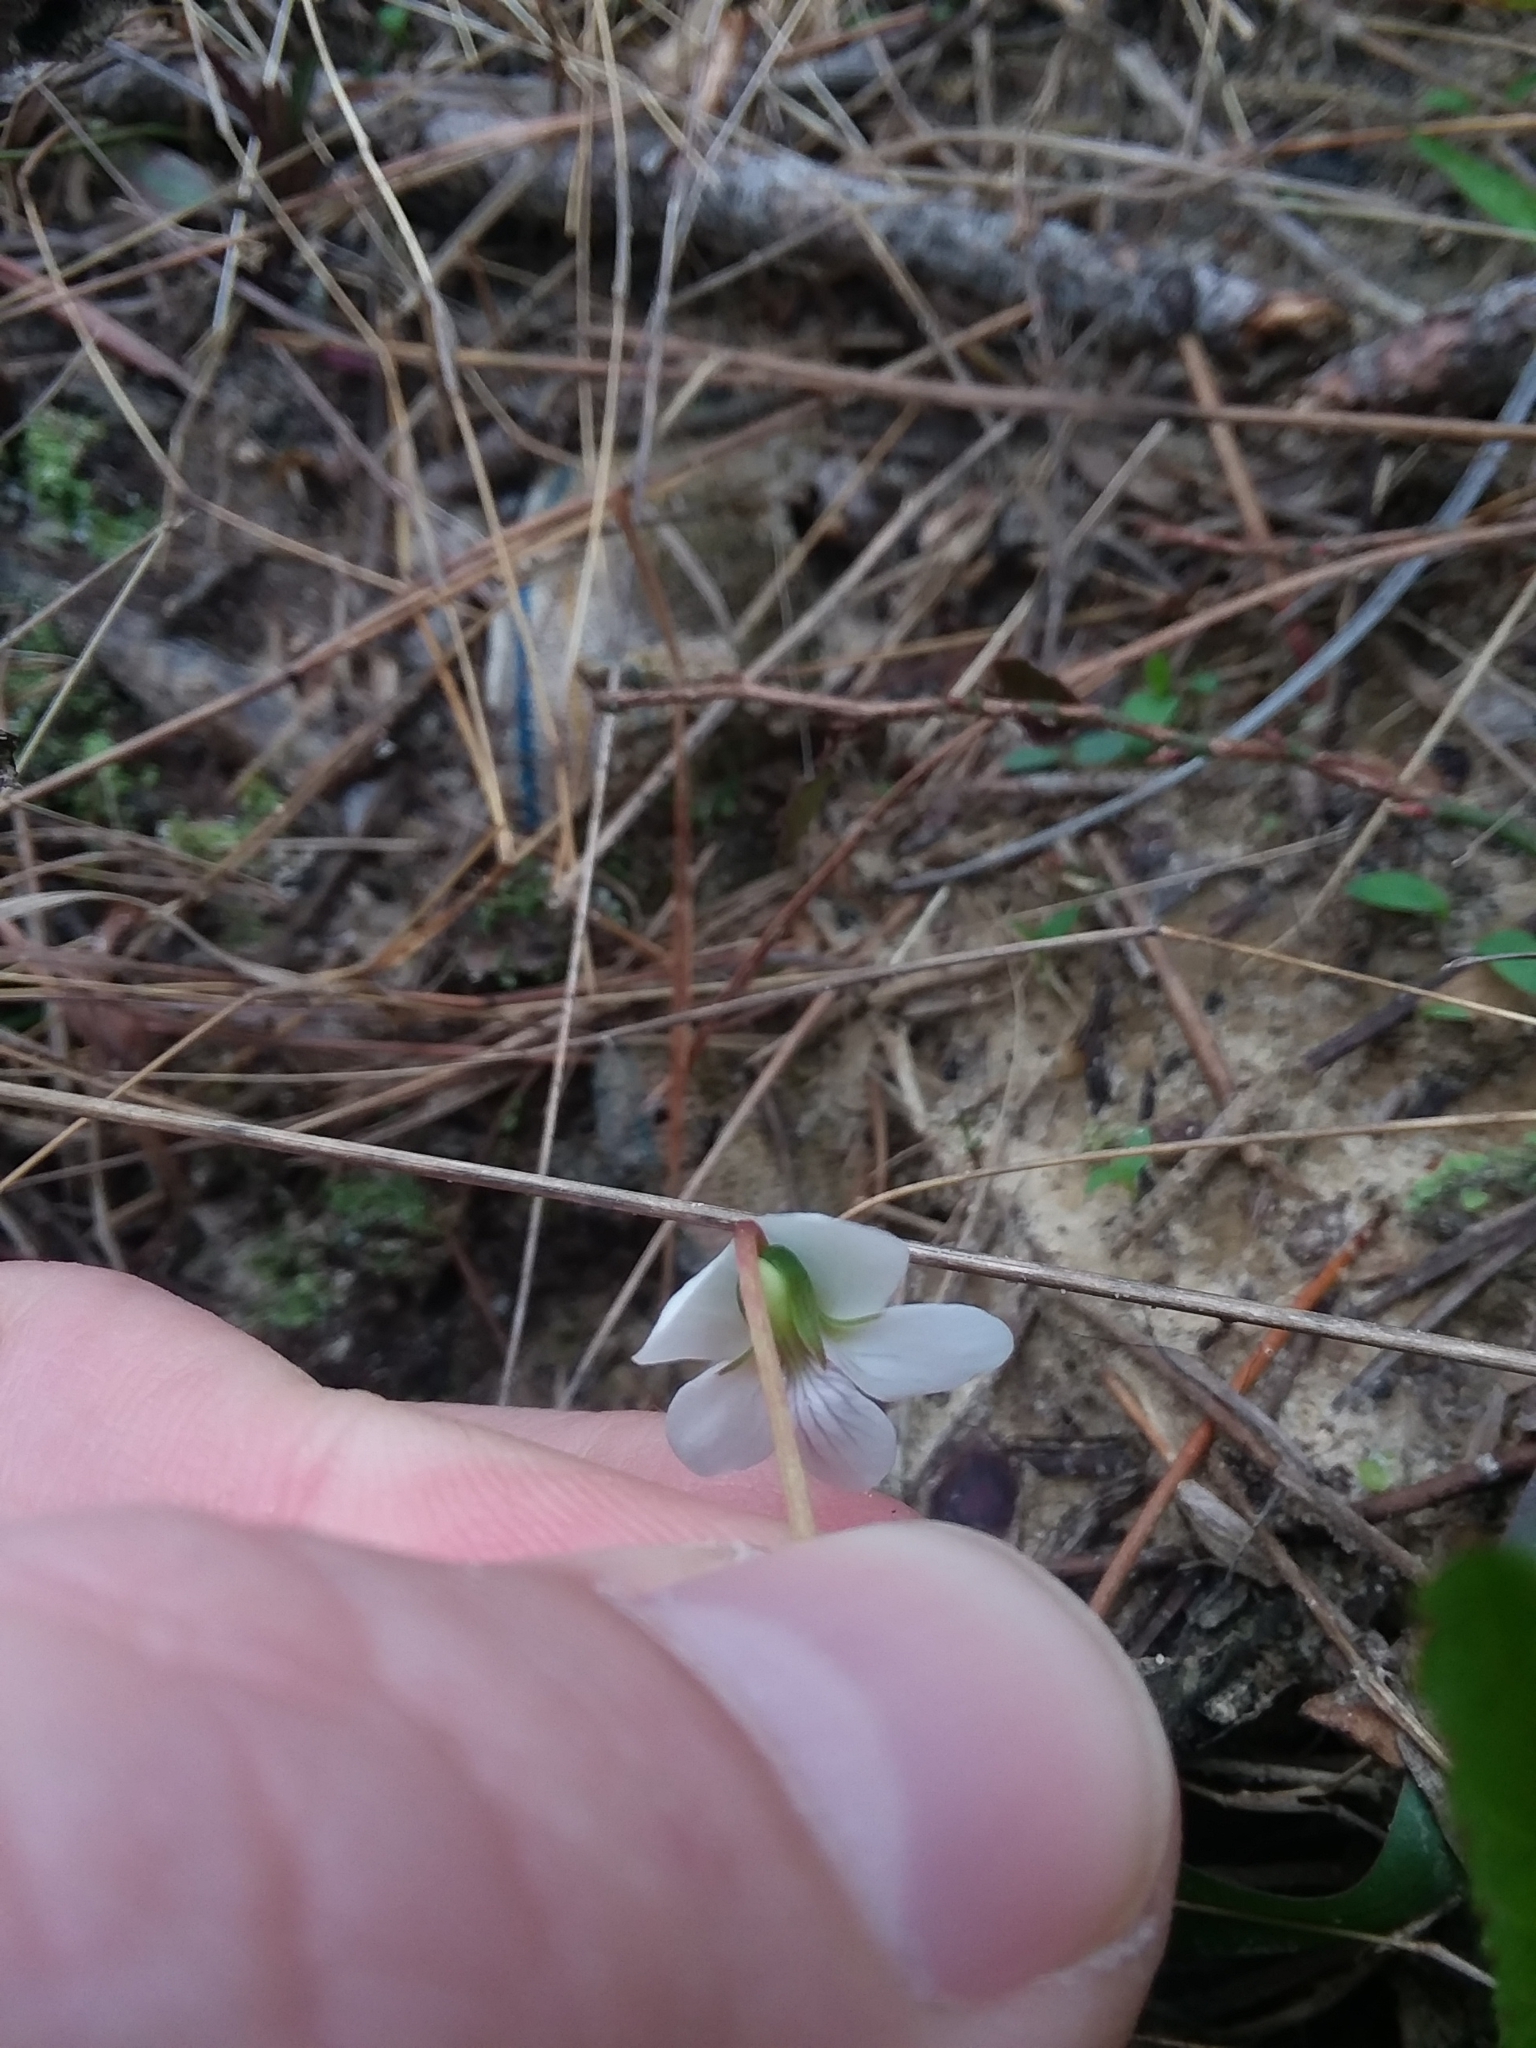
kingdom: Plantae
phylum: Tracheophyta
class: Magnoliopsida
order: Malpighiales
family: Violaceae
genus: Viola
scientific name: Viola lanceolata
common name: Bog white violet
